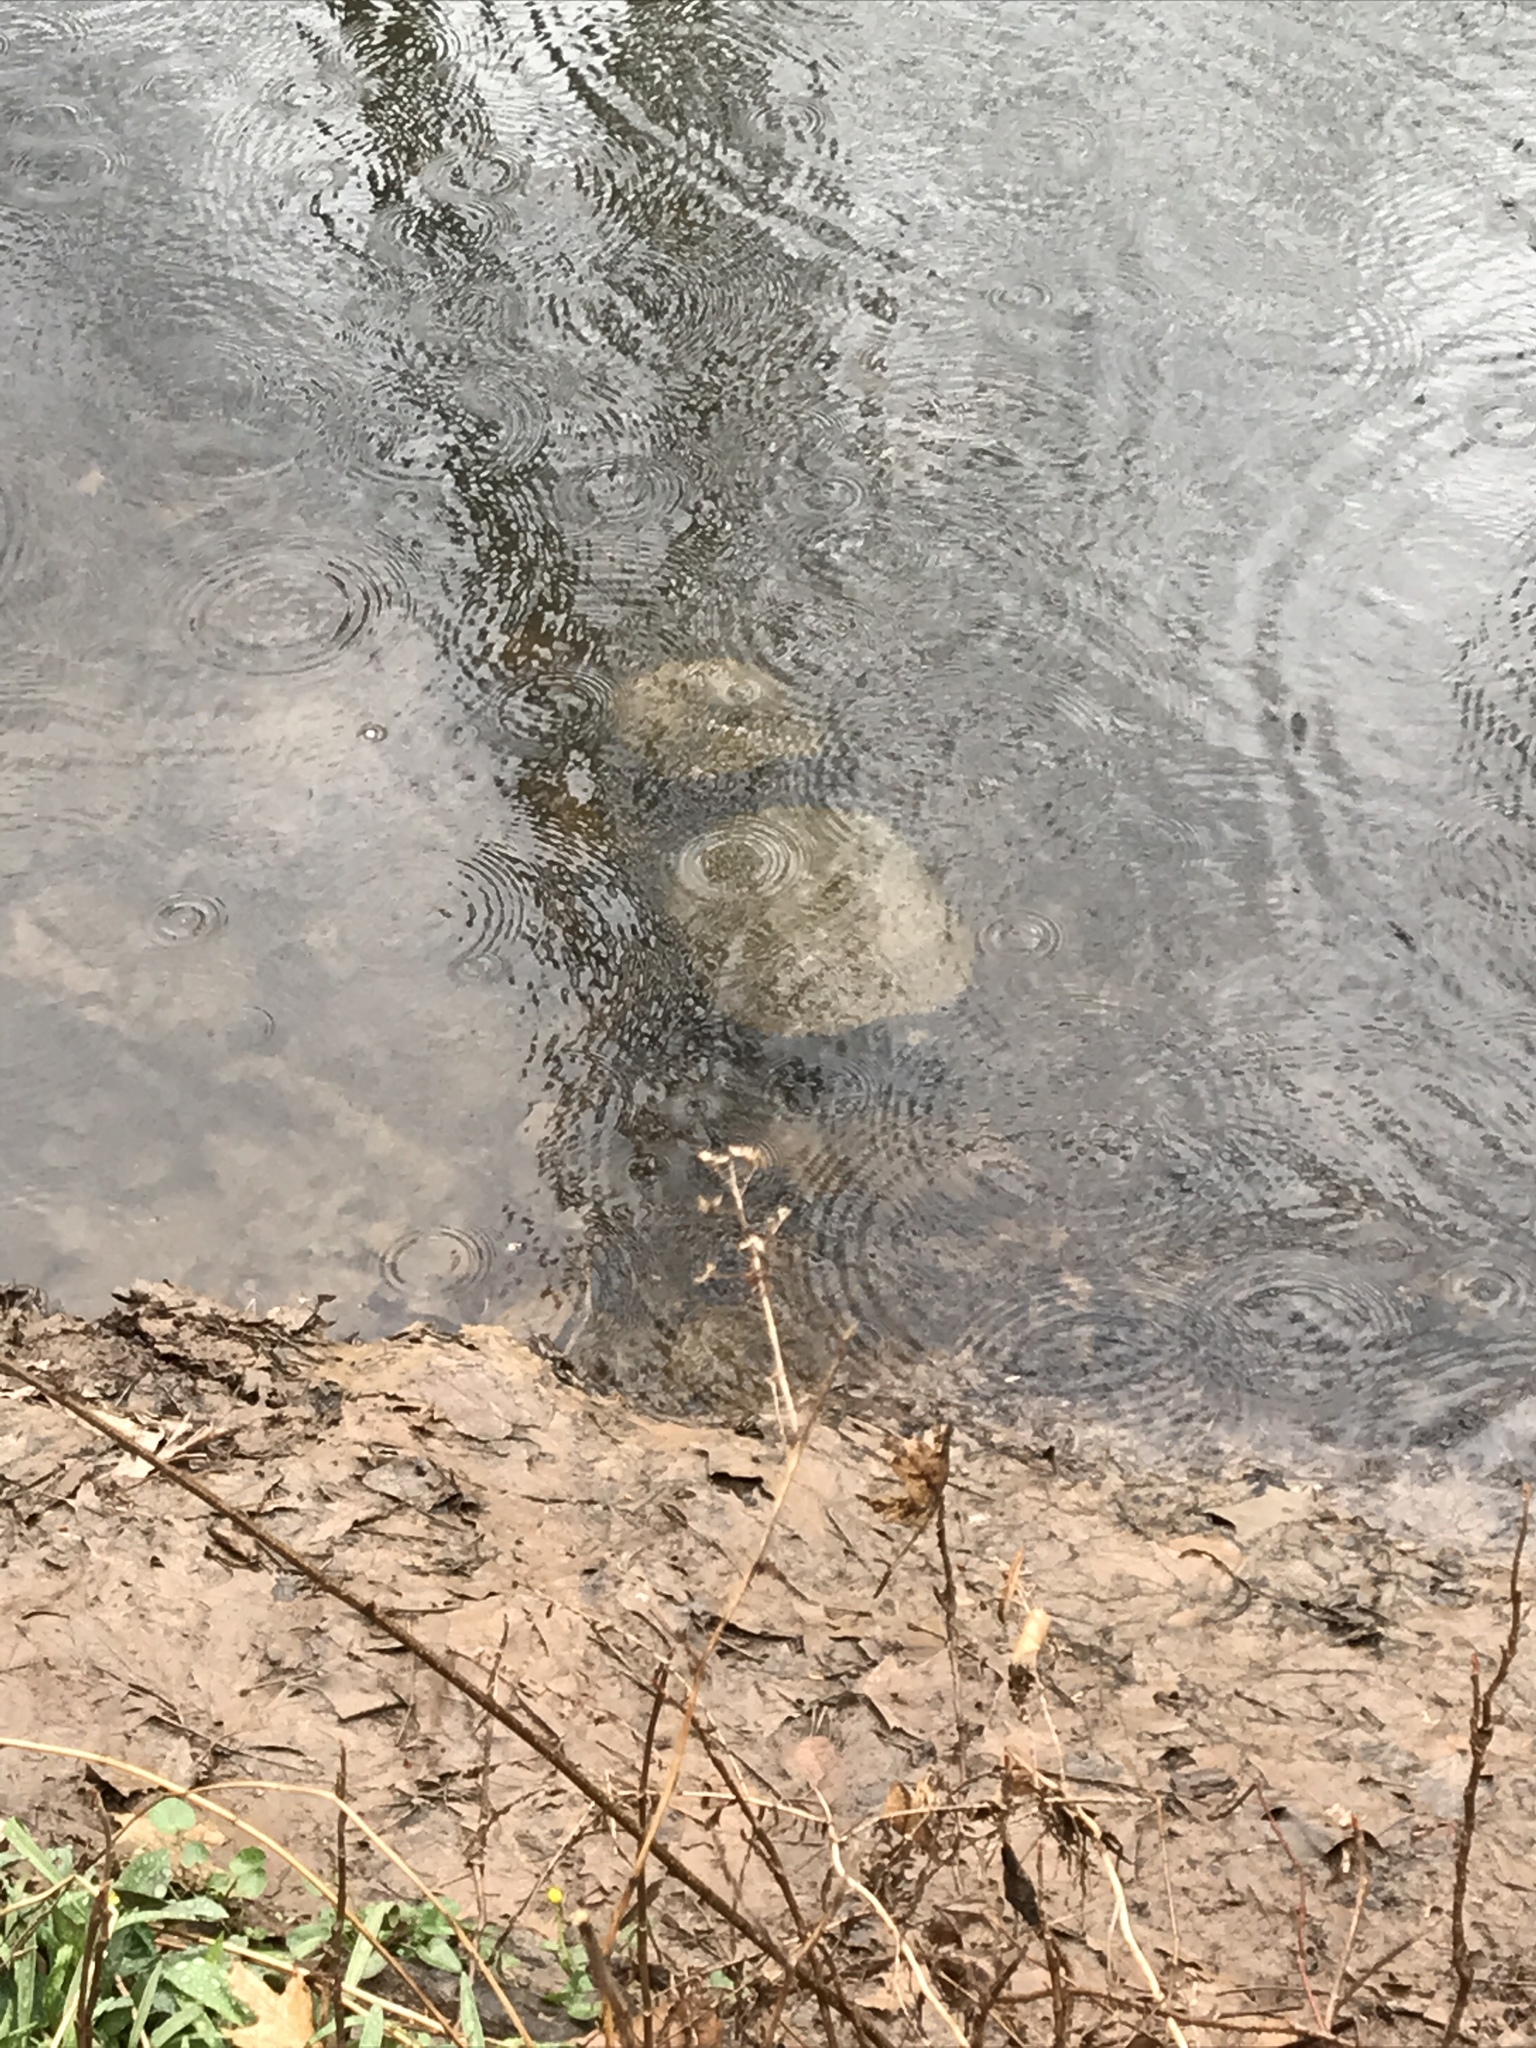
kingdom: Animalia
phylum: Chordata
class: Testudines
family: Chelydridae
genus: Chelydra
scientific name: Chelydra serpentina
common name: Common snapping turtle
